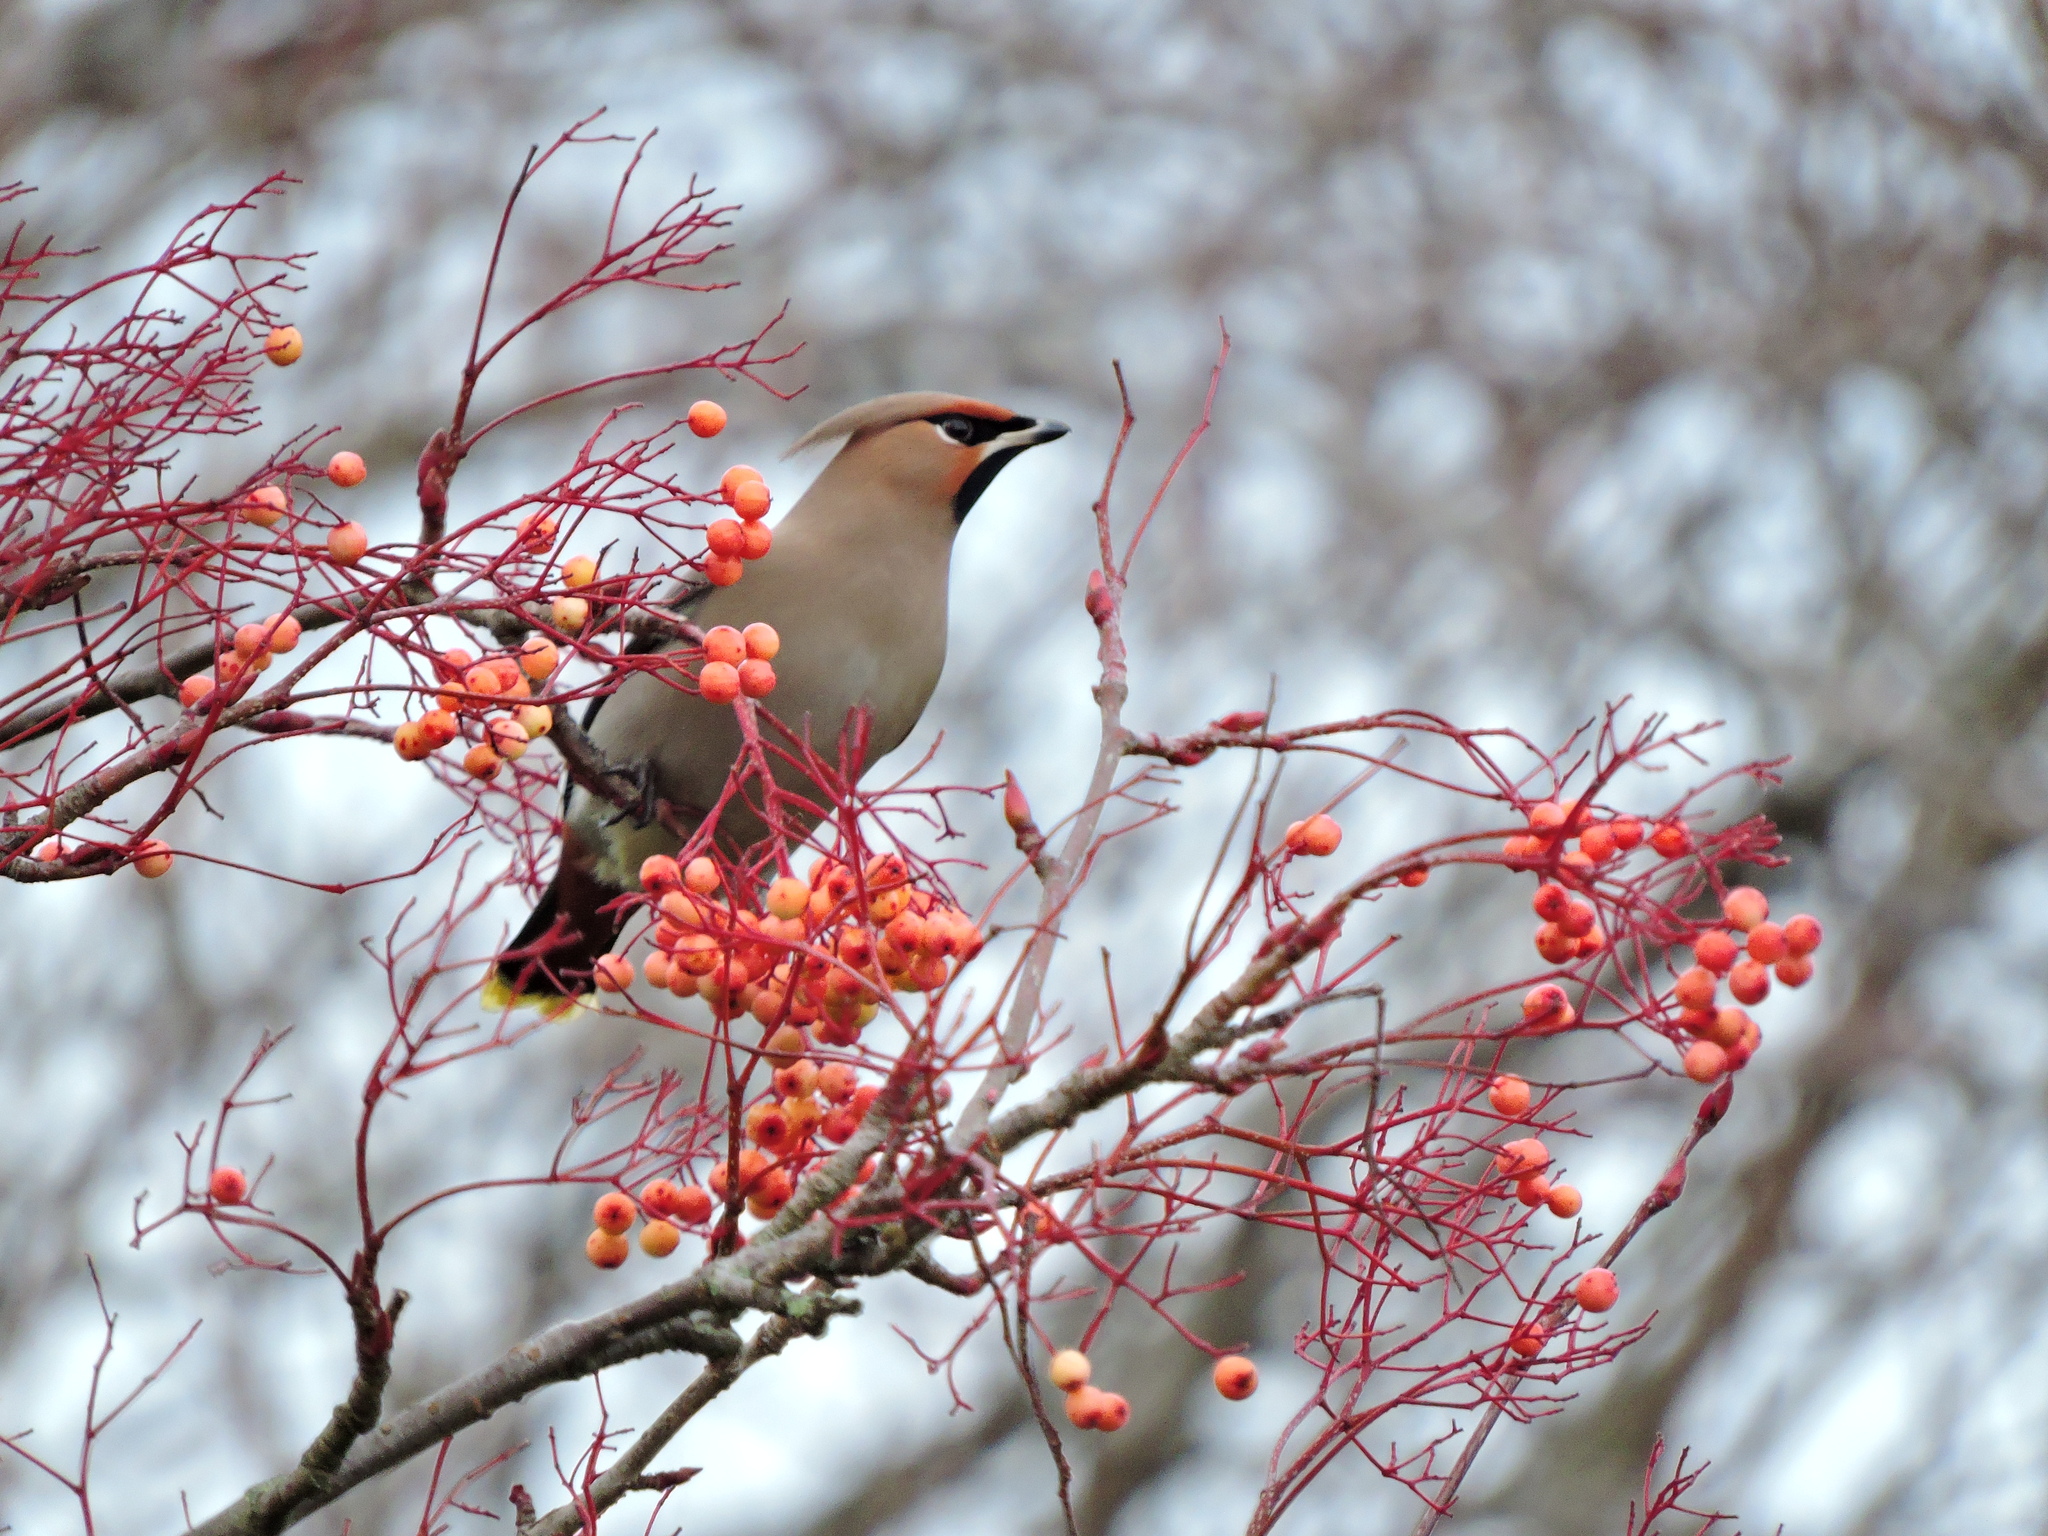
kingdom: Animalia
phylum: Chordata
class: Aves
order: Passeriformes
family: Bombycillidae
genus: Bombycilla
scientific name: Bombycilla garrulus
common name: Bohemian waxwing
